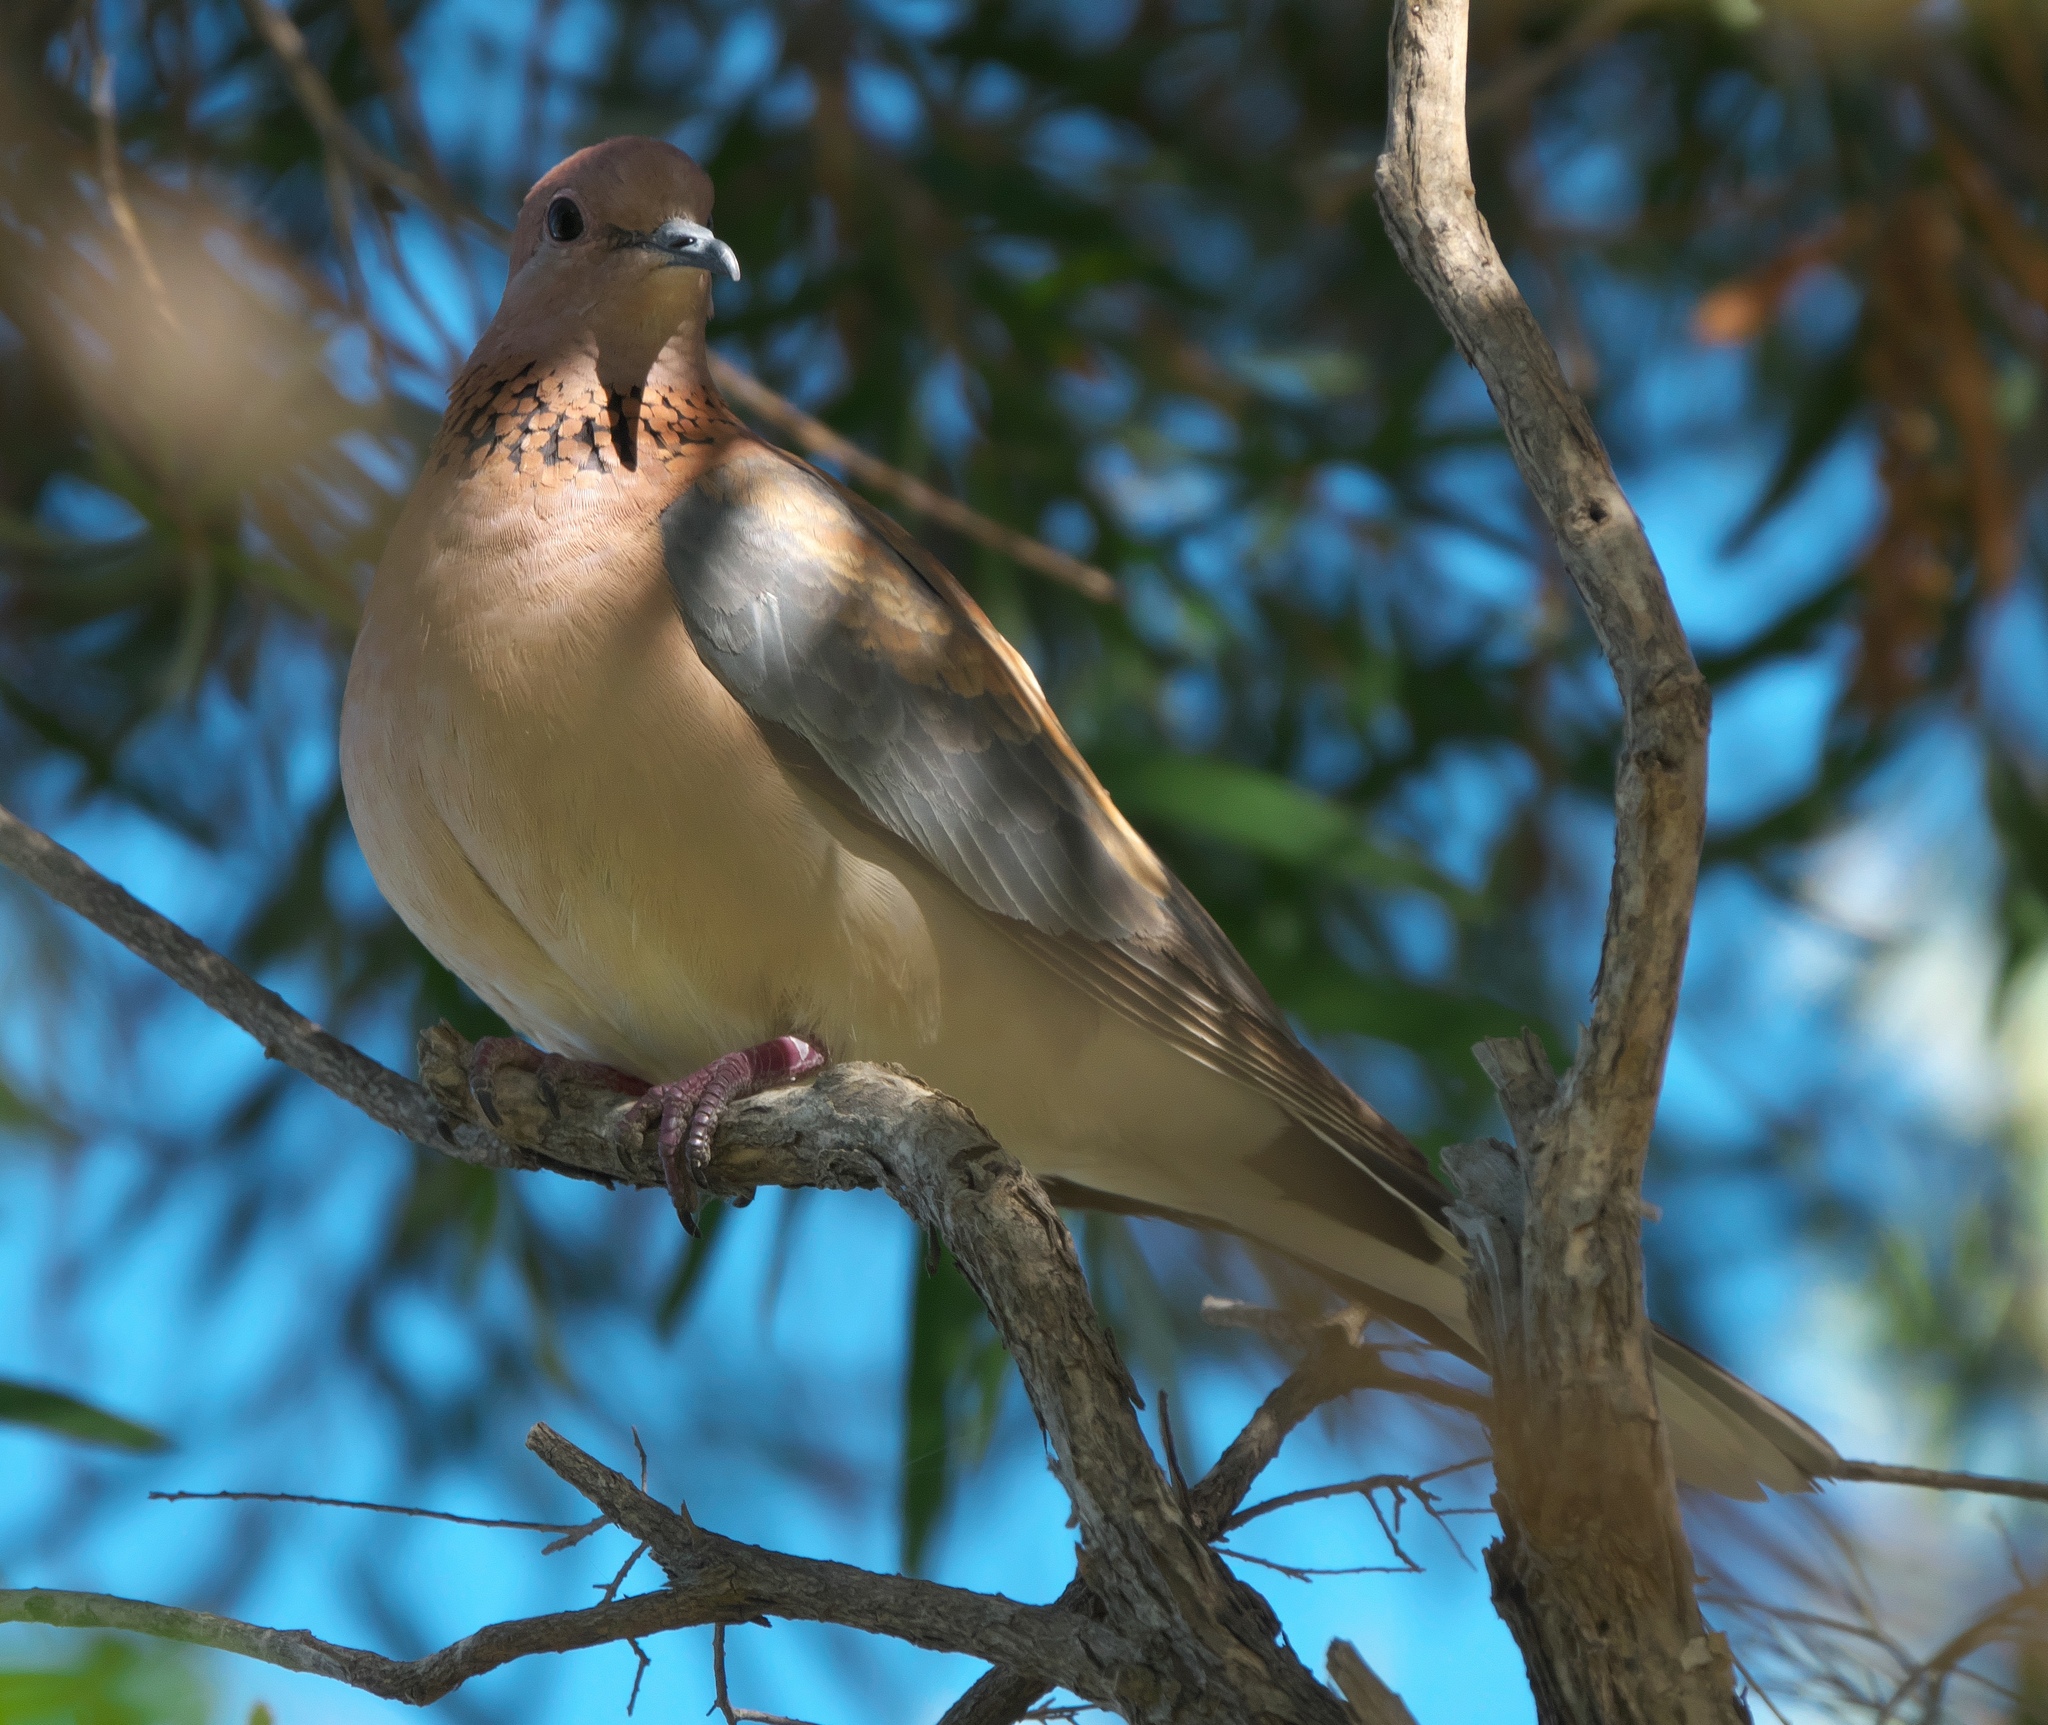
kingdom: Animalia
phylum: Chordata
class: Aves
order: Columbiformes
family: Columbidae
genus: Spilopelia
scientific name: Spilopelia senegalensis
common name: Laughing dove
